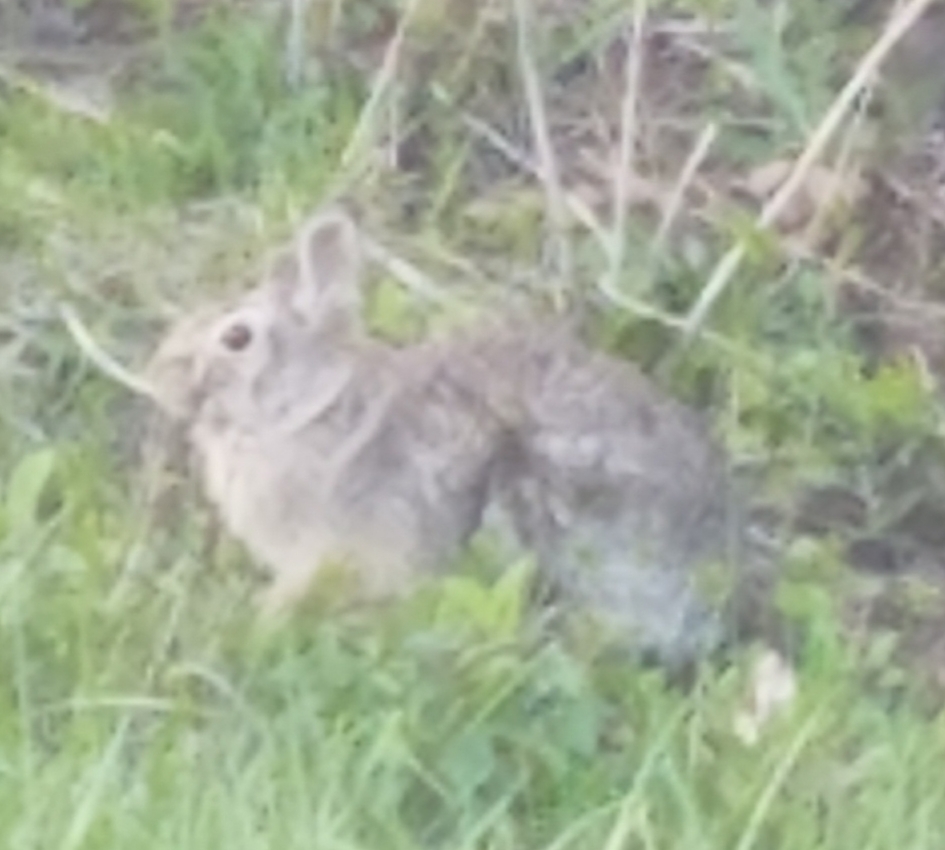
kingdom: Animalia
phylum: Chordata
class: Mammalia
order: Lagomorpha
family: Leporidae
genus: Sylvilagus
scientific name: Sylvilagus floridanus
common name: Eastern cottontail
